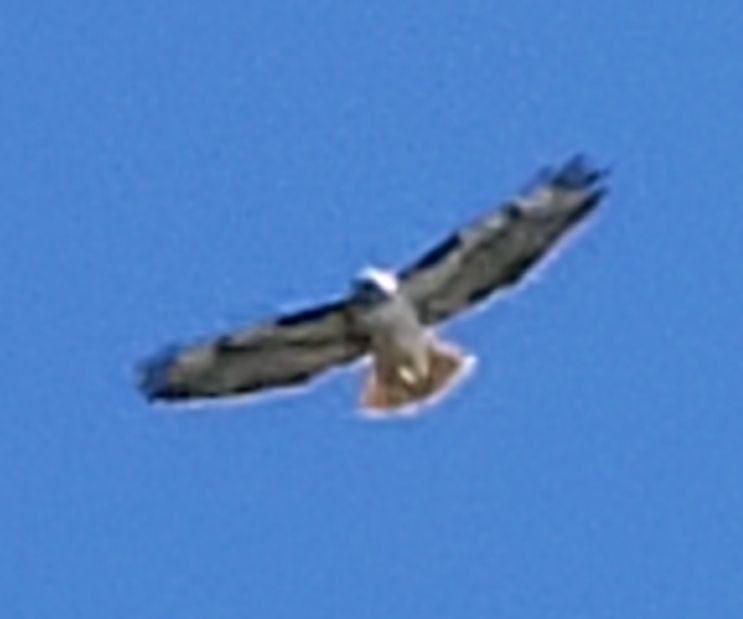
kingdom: Animalia
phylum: Chordata
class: Aves
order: Accipitriformes
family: Accipitridae
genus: Buteo
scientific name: Buteo jamaicensis
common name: Red-tailed hawk
